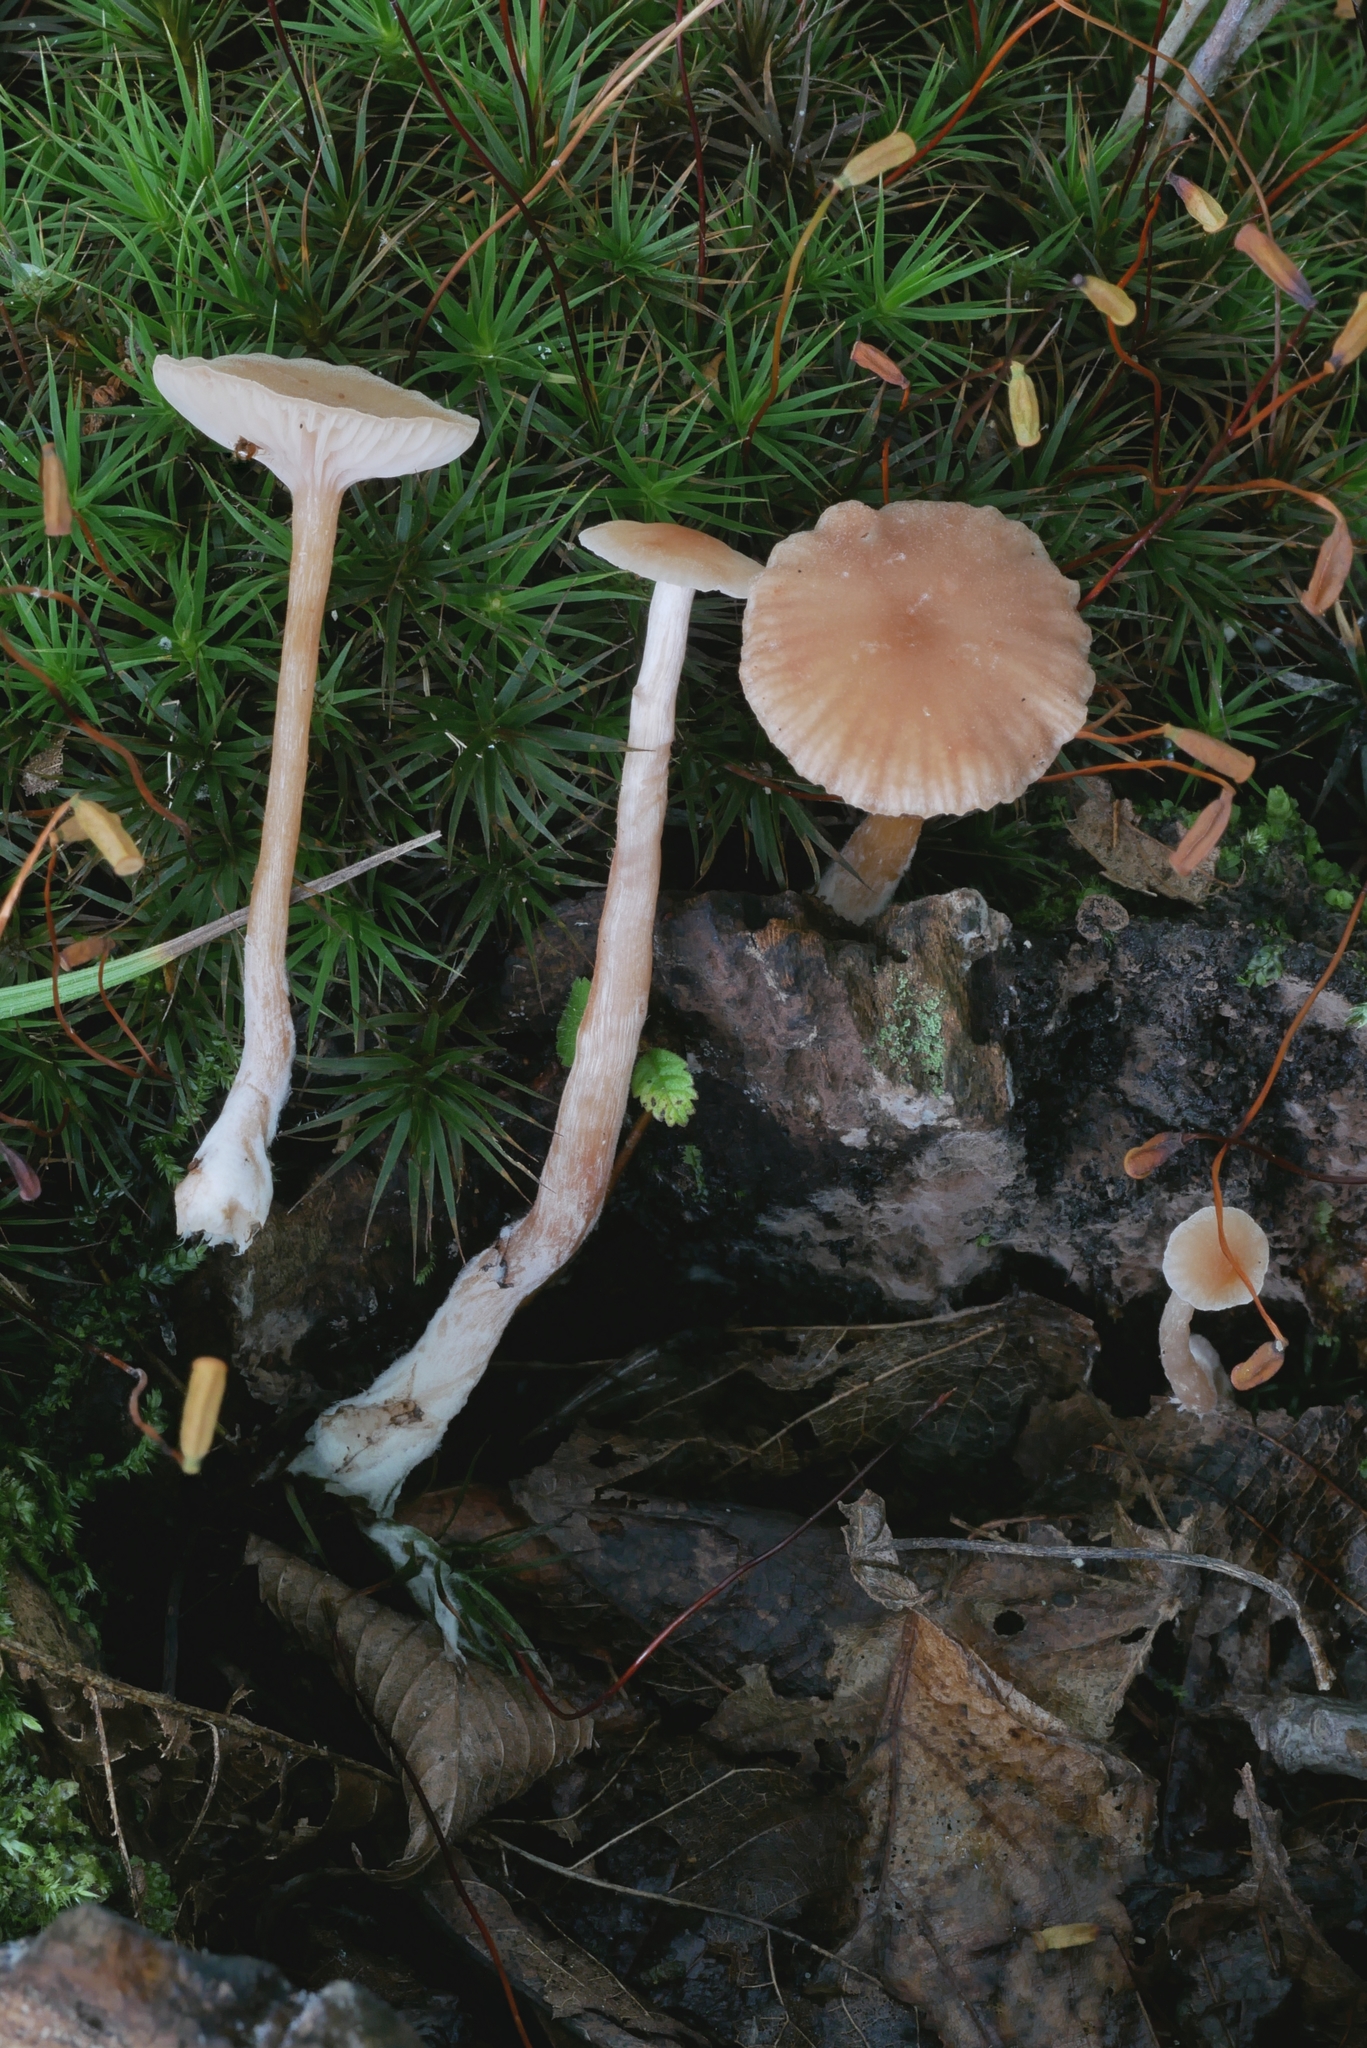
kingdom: Fungi
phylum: Basidiomycota
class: Agaricomycetes
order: Agaricales
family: Hydnangiaceae
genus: Laccaria
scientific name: Laccaria laccata
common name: Deceiver
